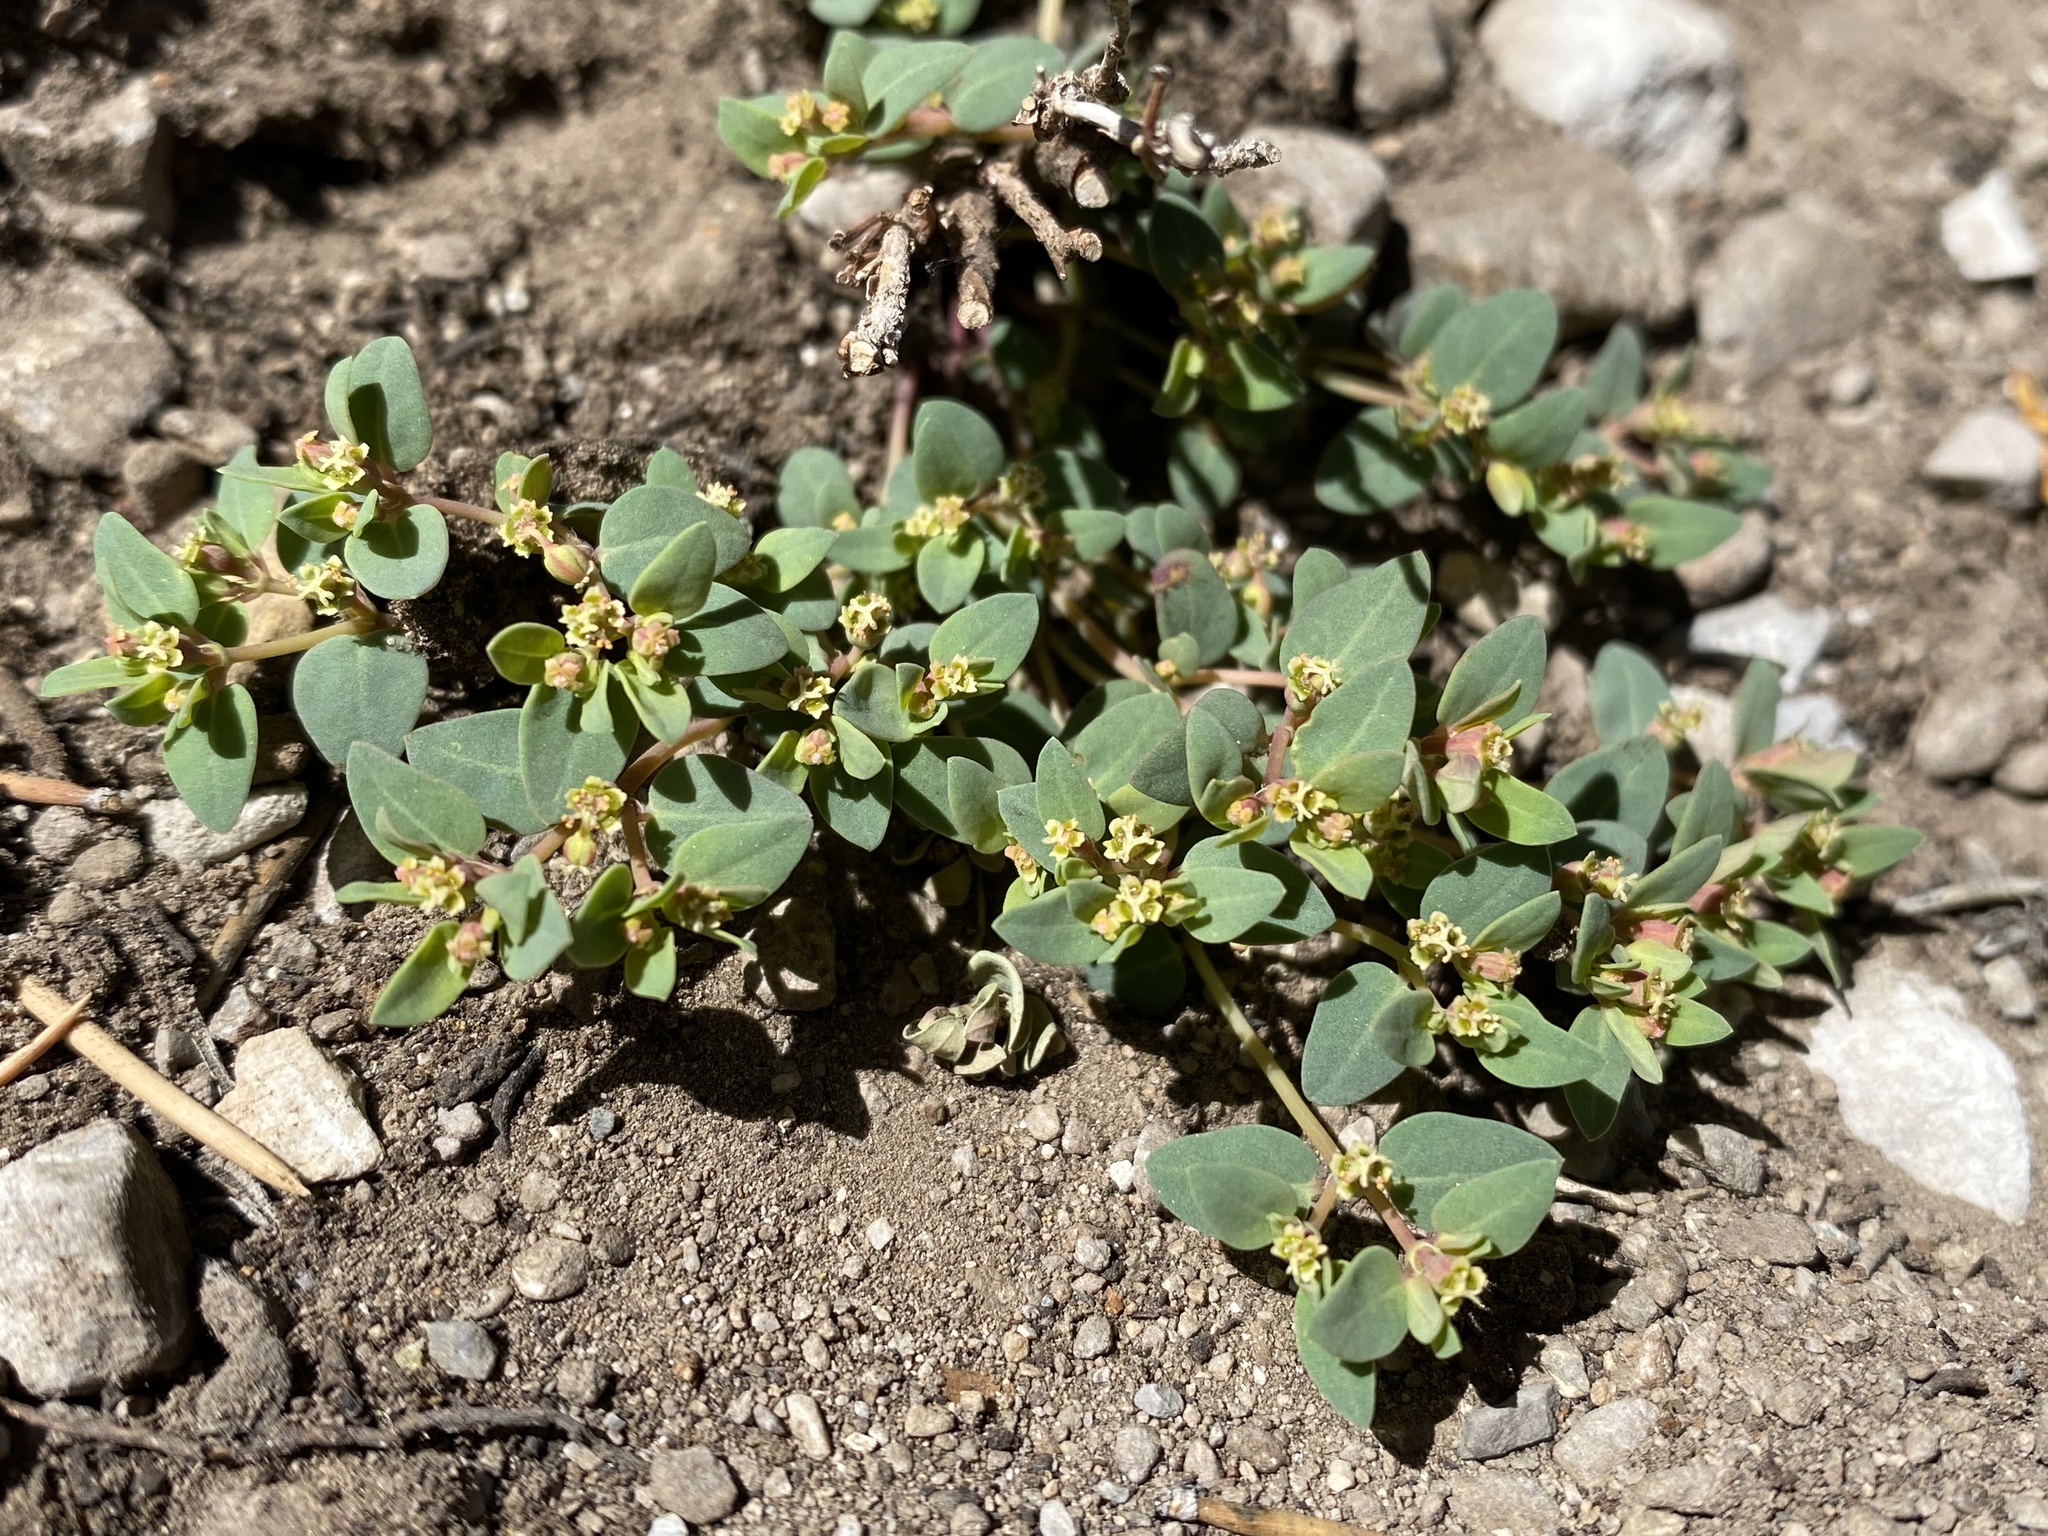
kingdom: Plantae
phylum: Tracheophyta
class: Magnoliopsida
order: Malpighiales
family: Euphorbiaceae
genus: Euphorbia
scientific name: Euphorbia fendleri
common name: Fendler's euphorbia
